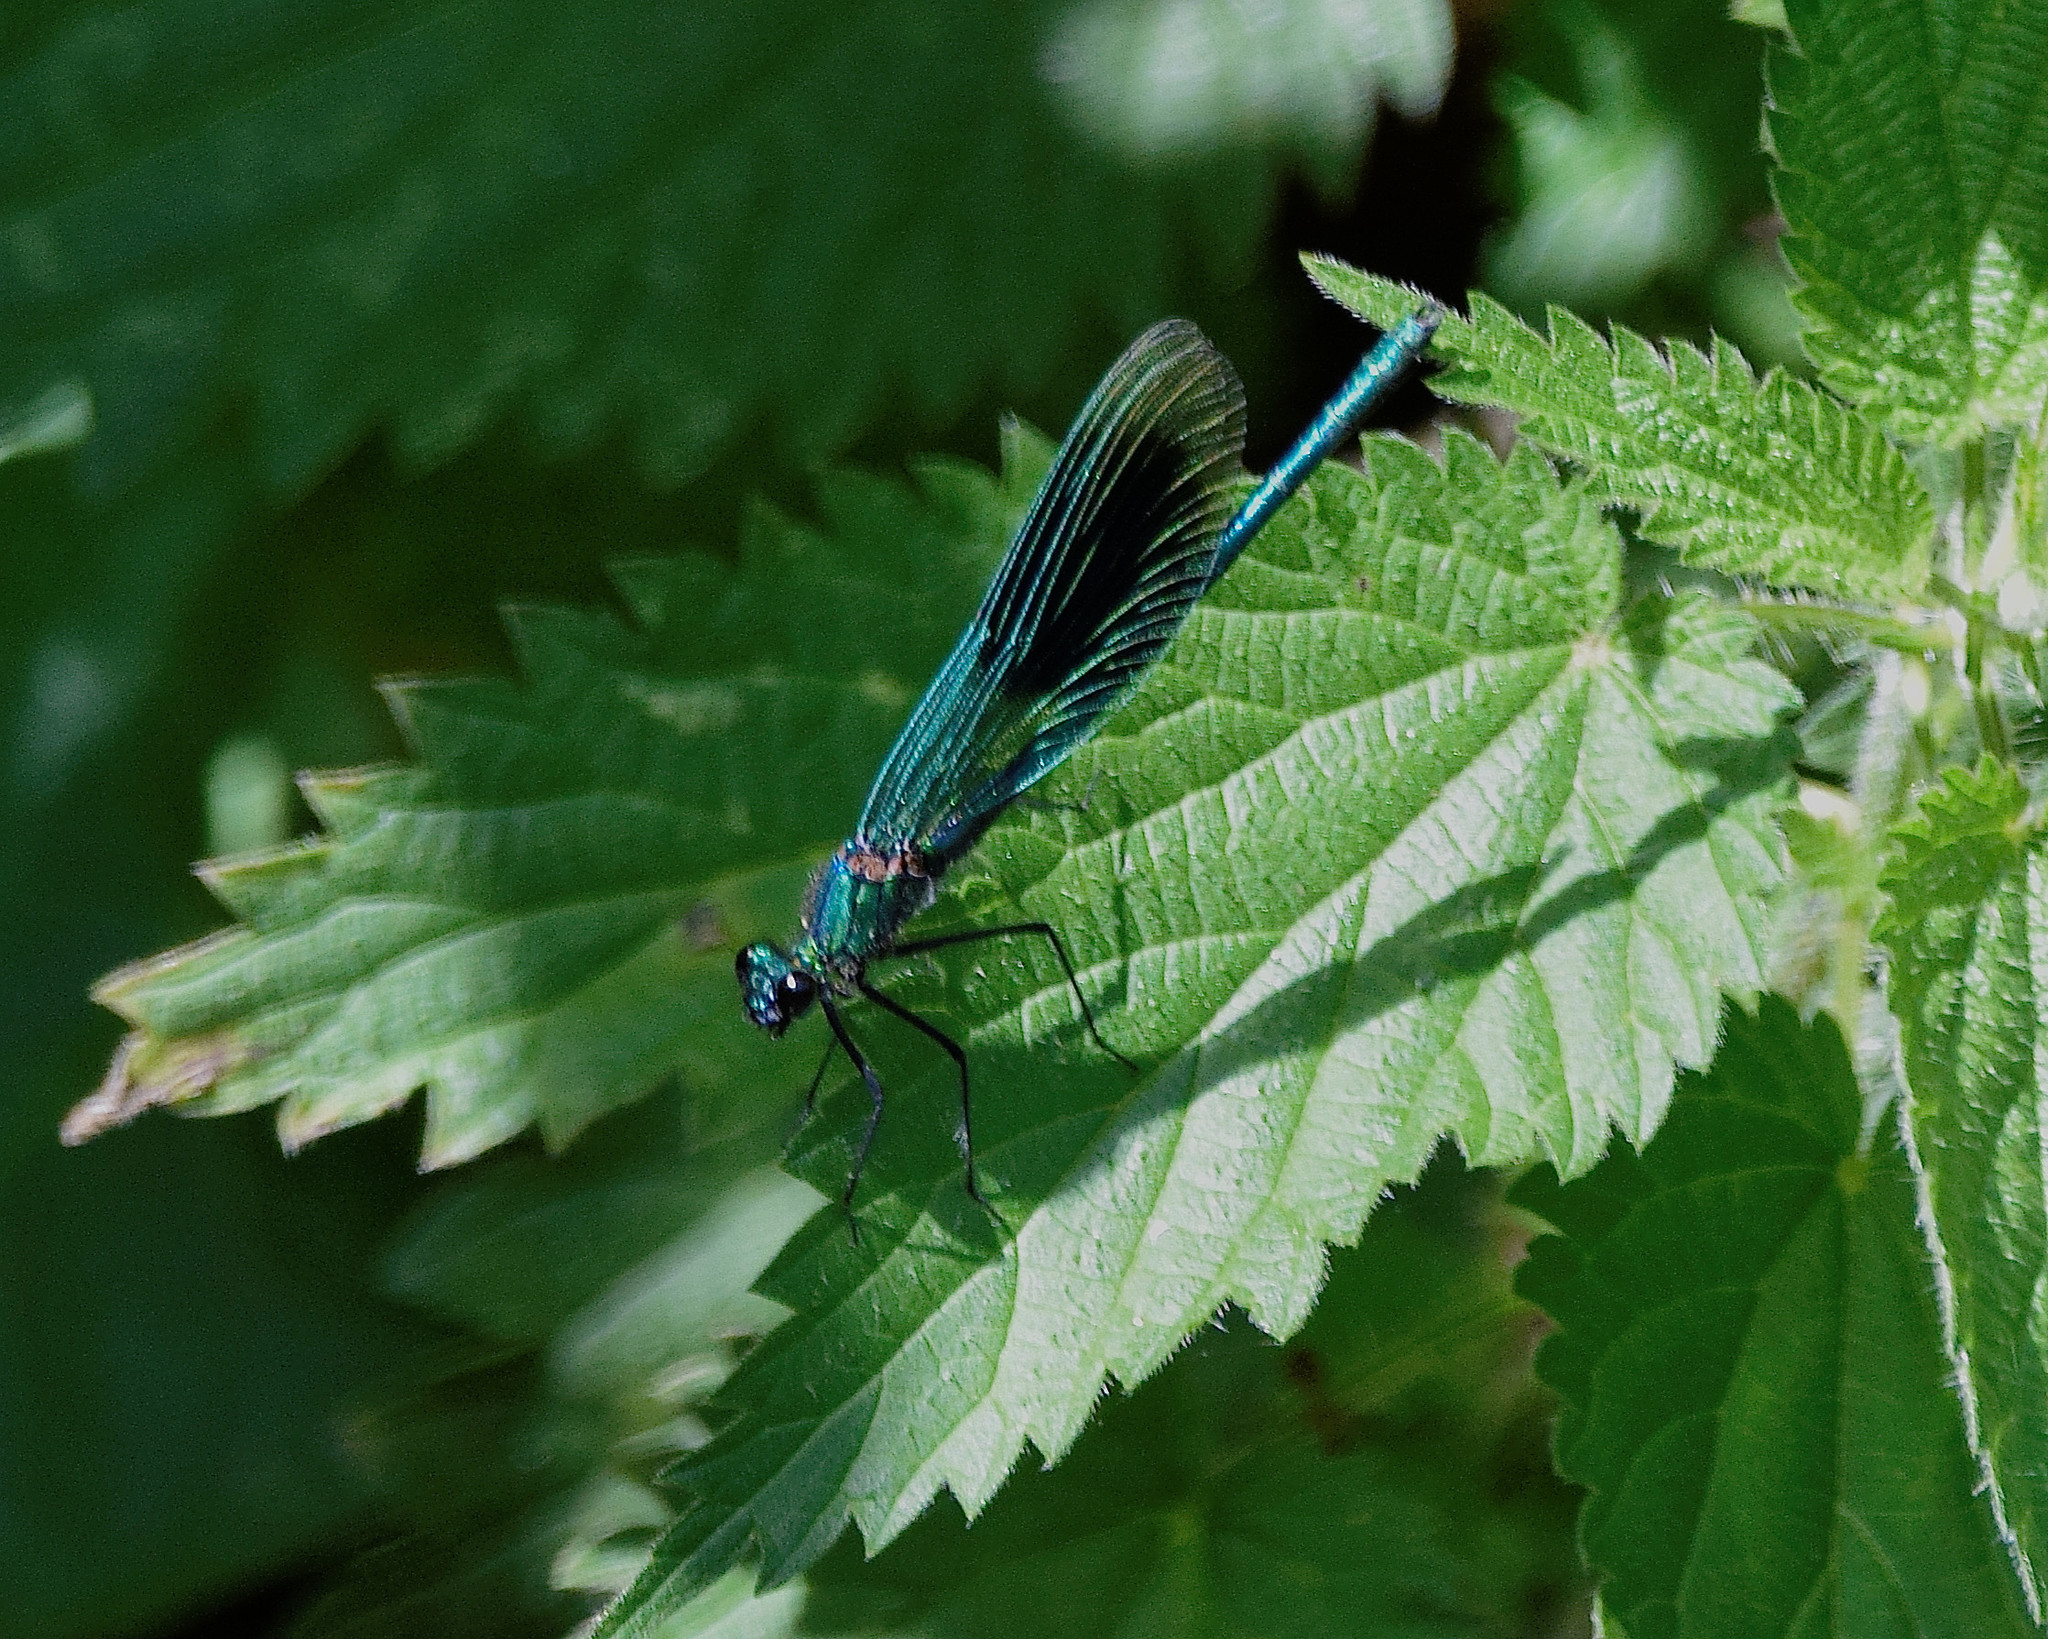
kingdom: Animalia
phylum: Arthropoda
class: Insecta
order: Odonata
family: Calopterygidae
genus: Calopteryx
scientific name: Calopteryx splendens
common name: Banded demoiselle
